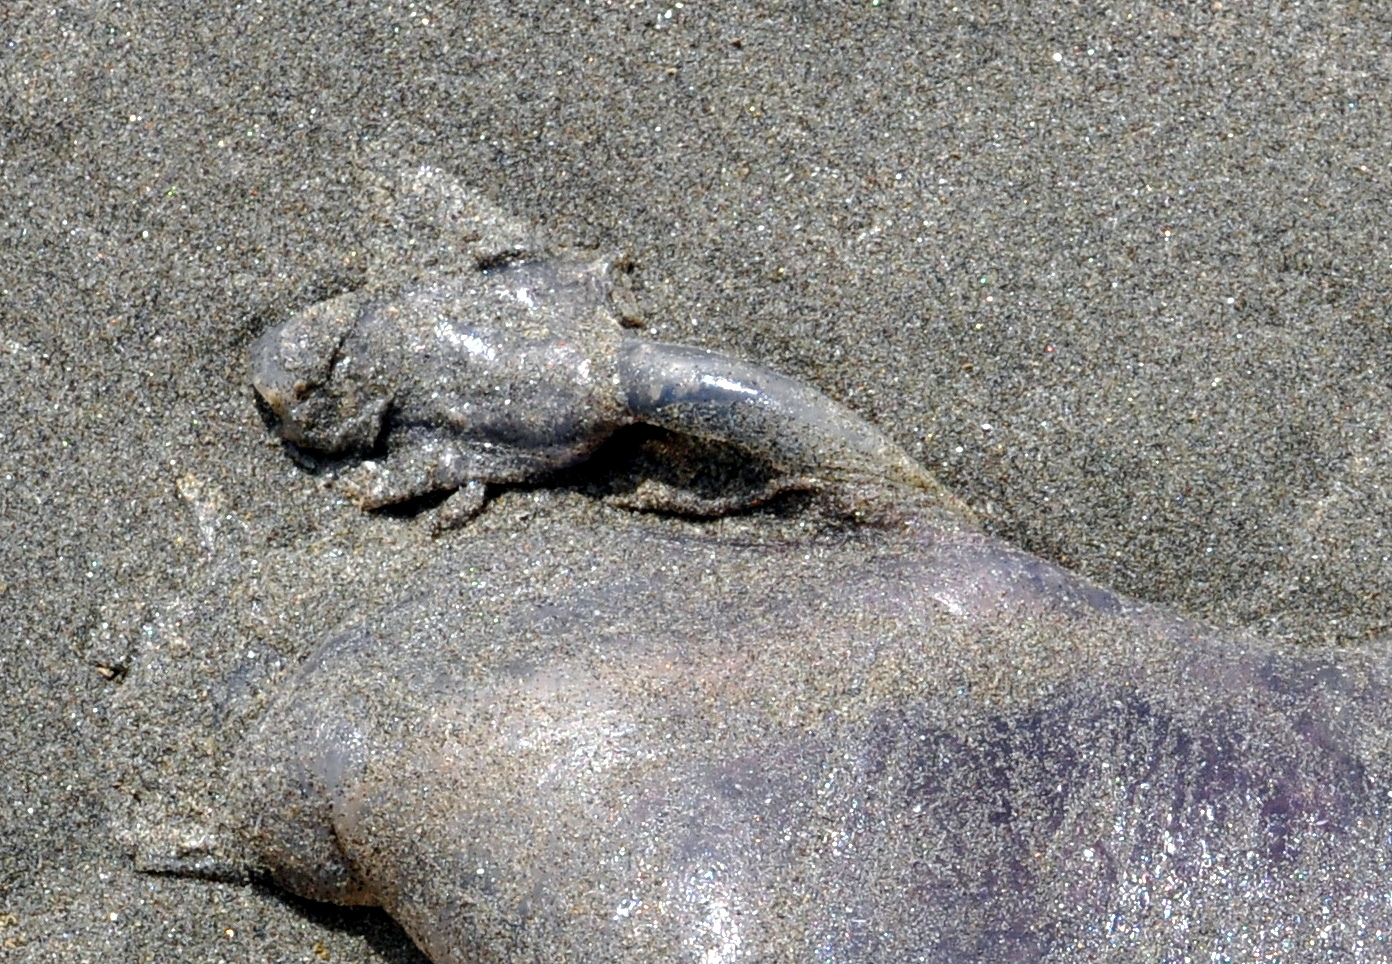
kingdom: Animalia
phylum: Arthropoda
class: Maxillopoda
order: Pedunculata
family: Lepadidae
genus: Alepas
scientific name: Alepas pacifica
